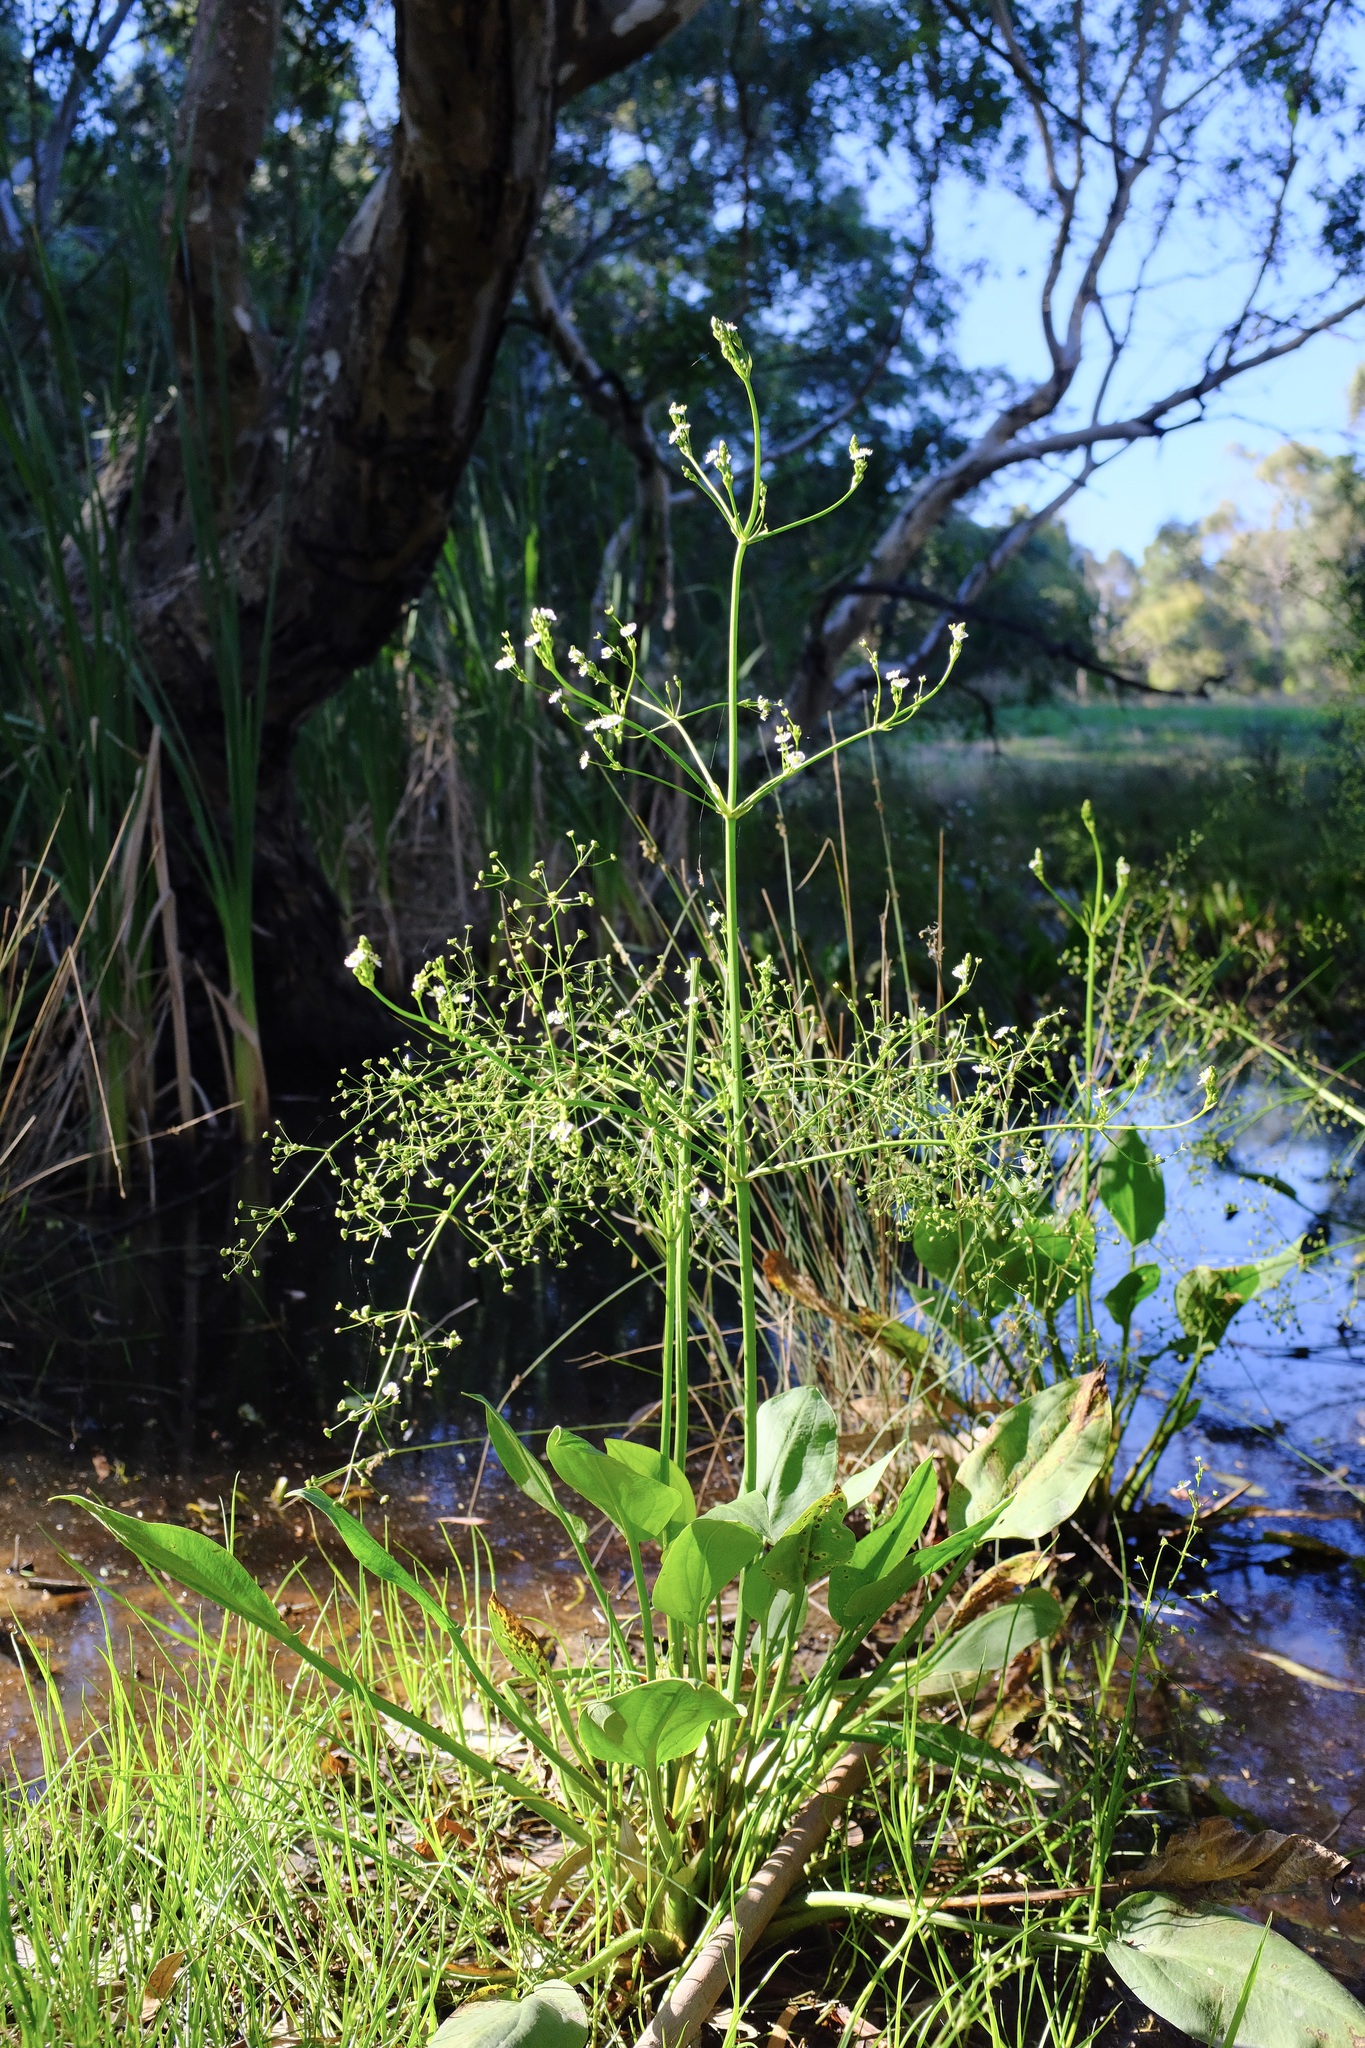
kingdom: Plantae
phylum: Tracheophyta
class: Liliopsida
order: Alismatales
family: Alismataceae
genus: Alisma
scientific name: Alisma plantago-aquatica
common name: Water-plantain
